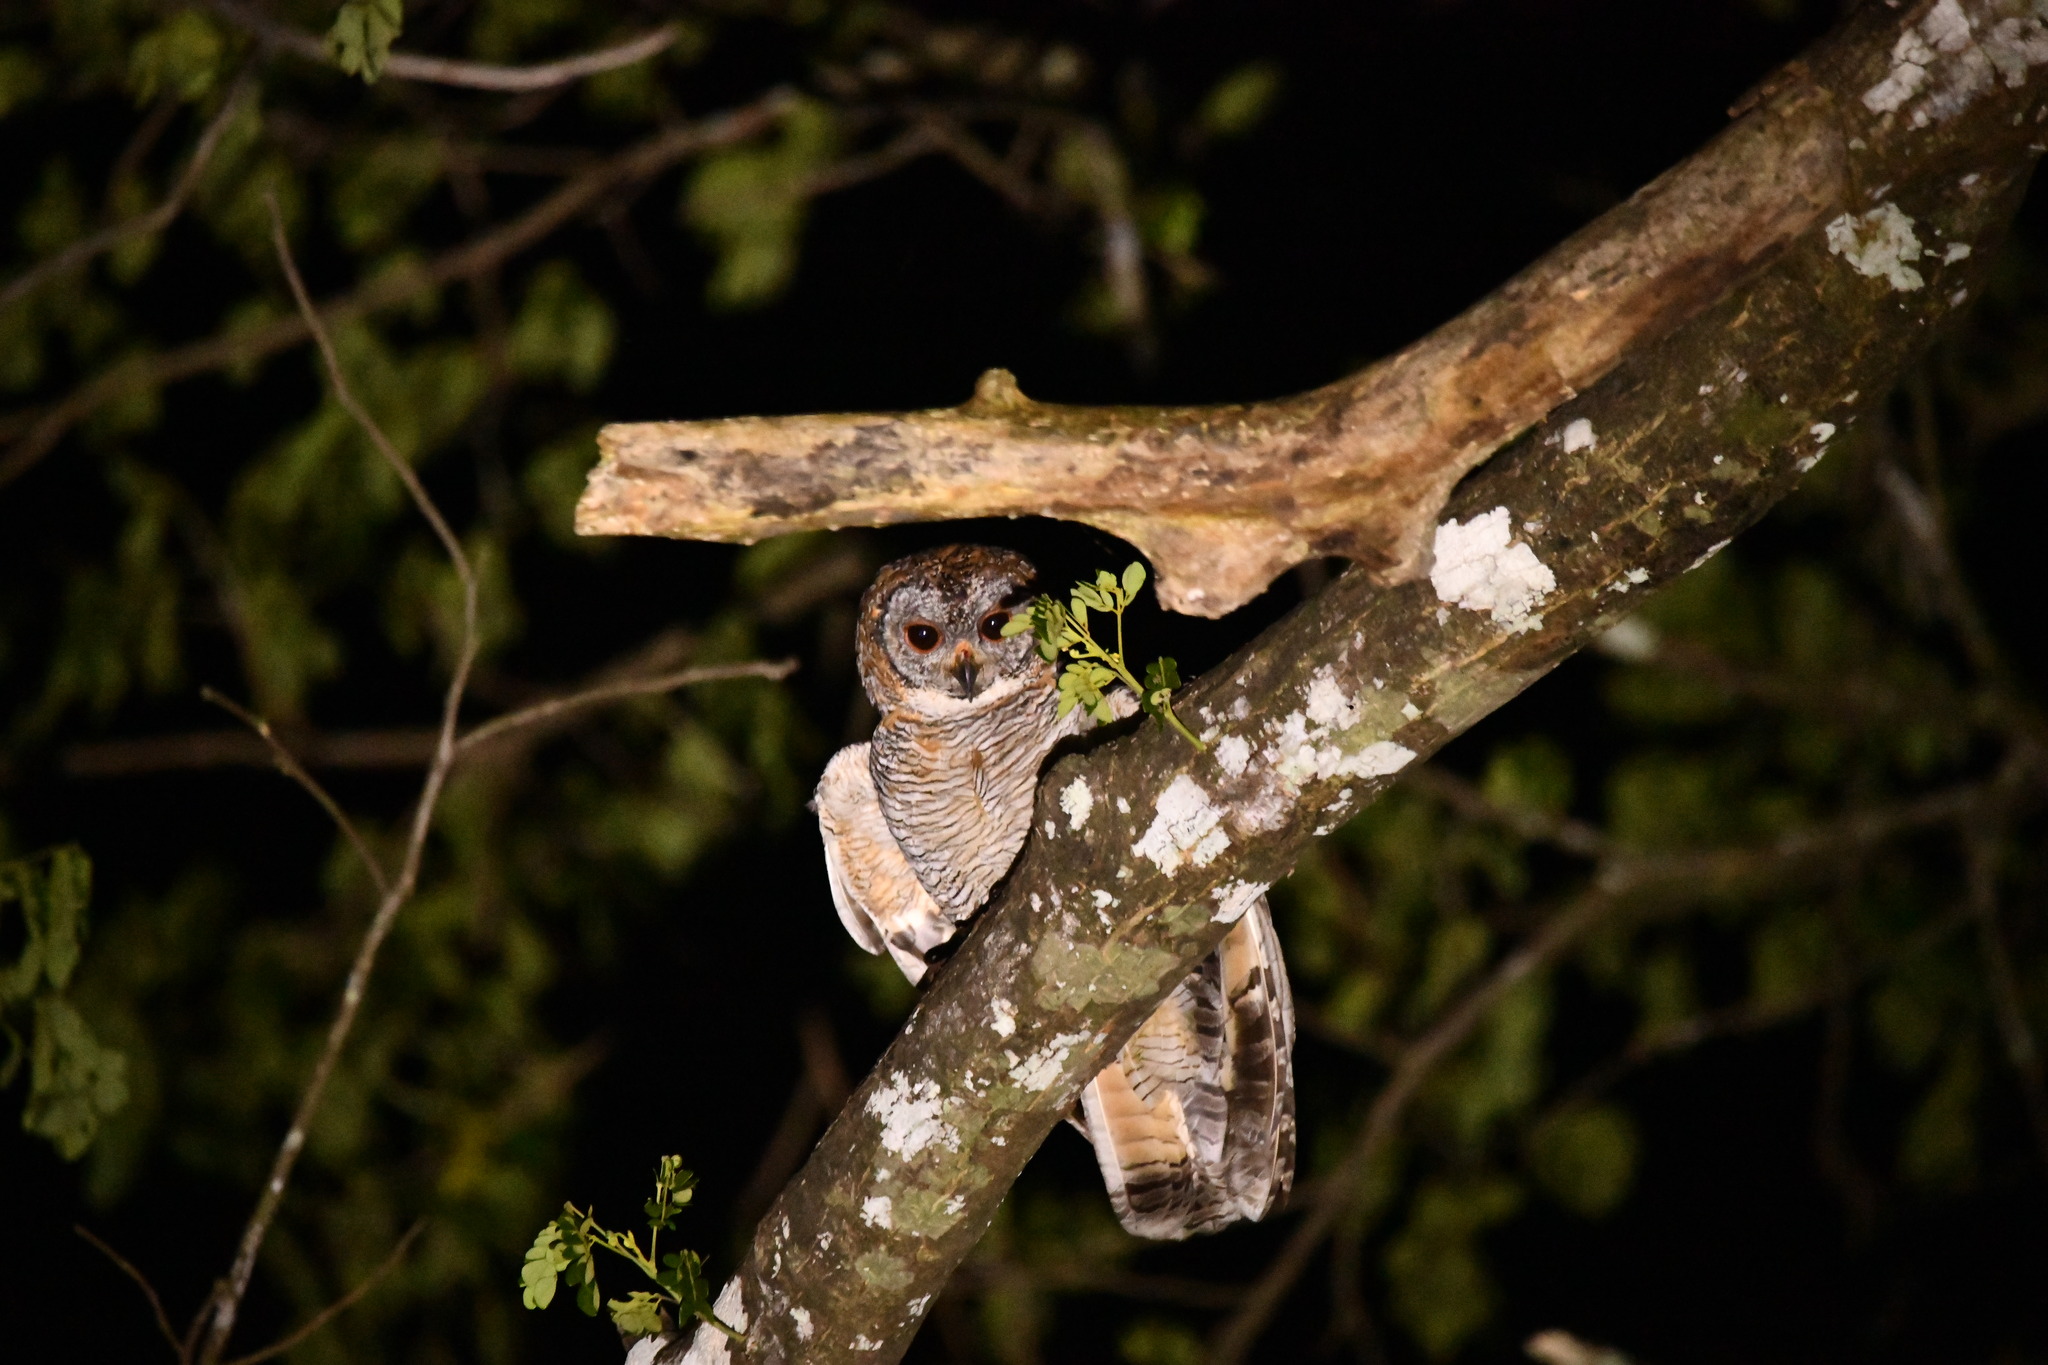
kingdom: Animalia
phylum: Chordata
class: Aves
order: Strigiformes
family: Strigidae
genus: Strix
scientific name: Strix ocellata
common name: Mottled wood owl
